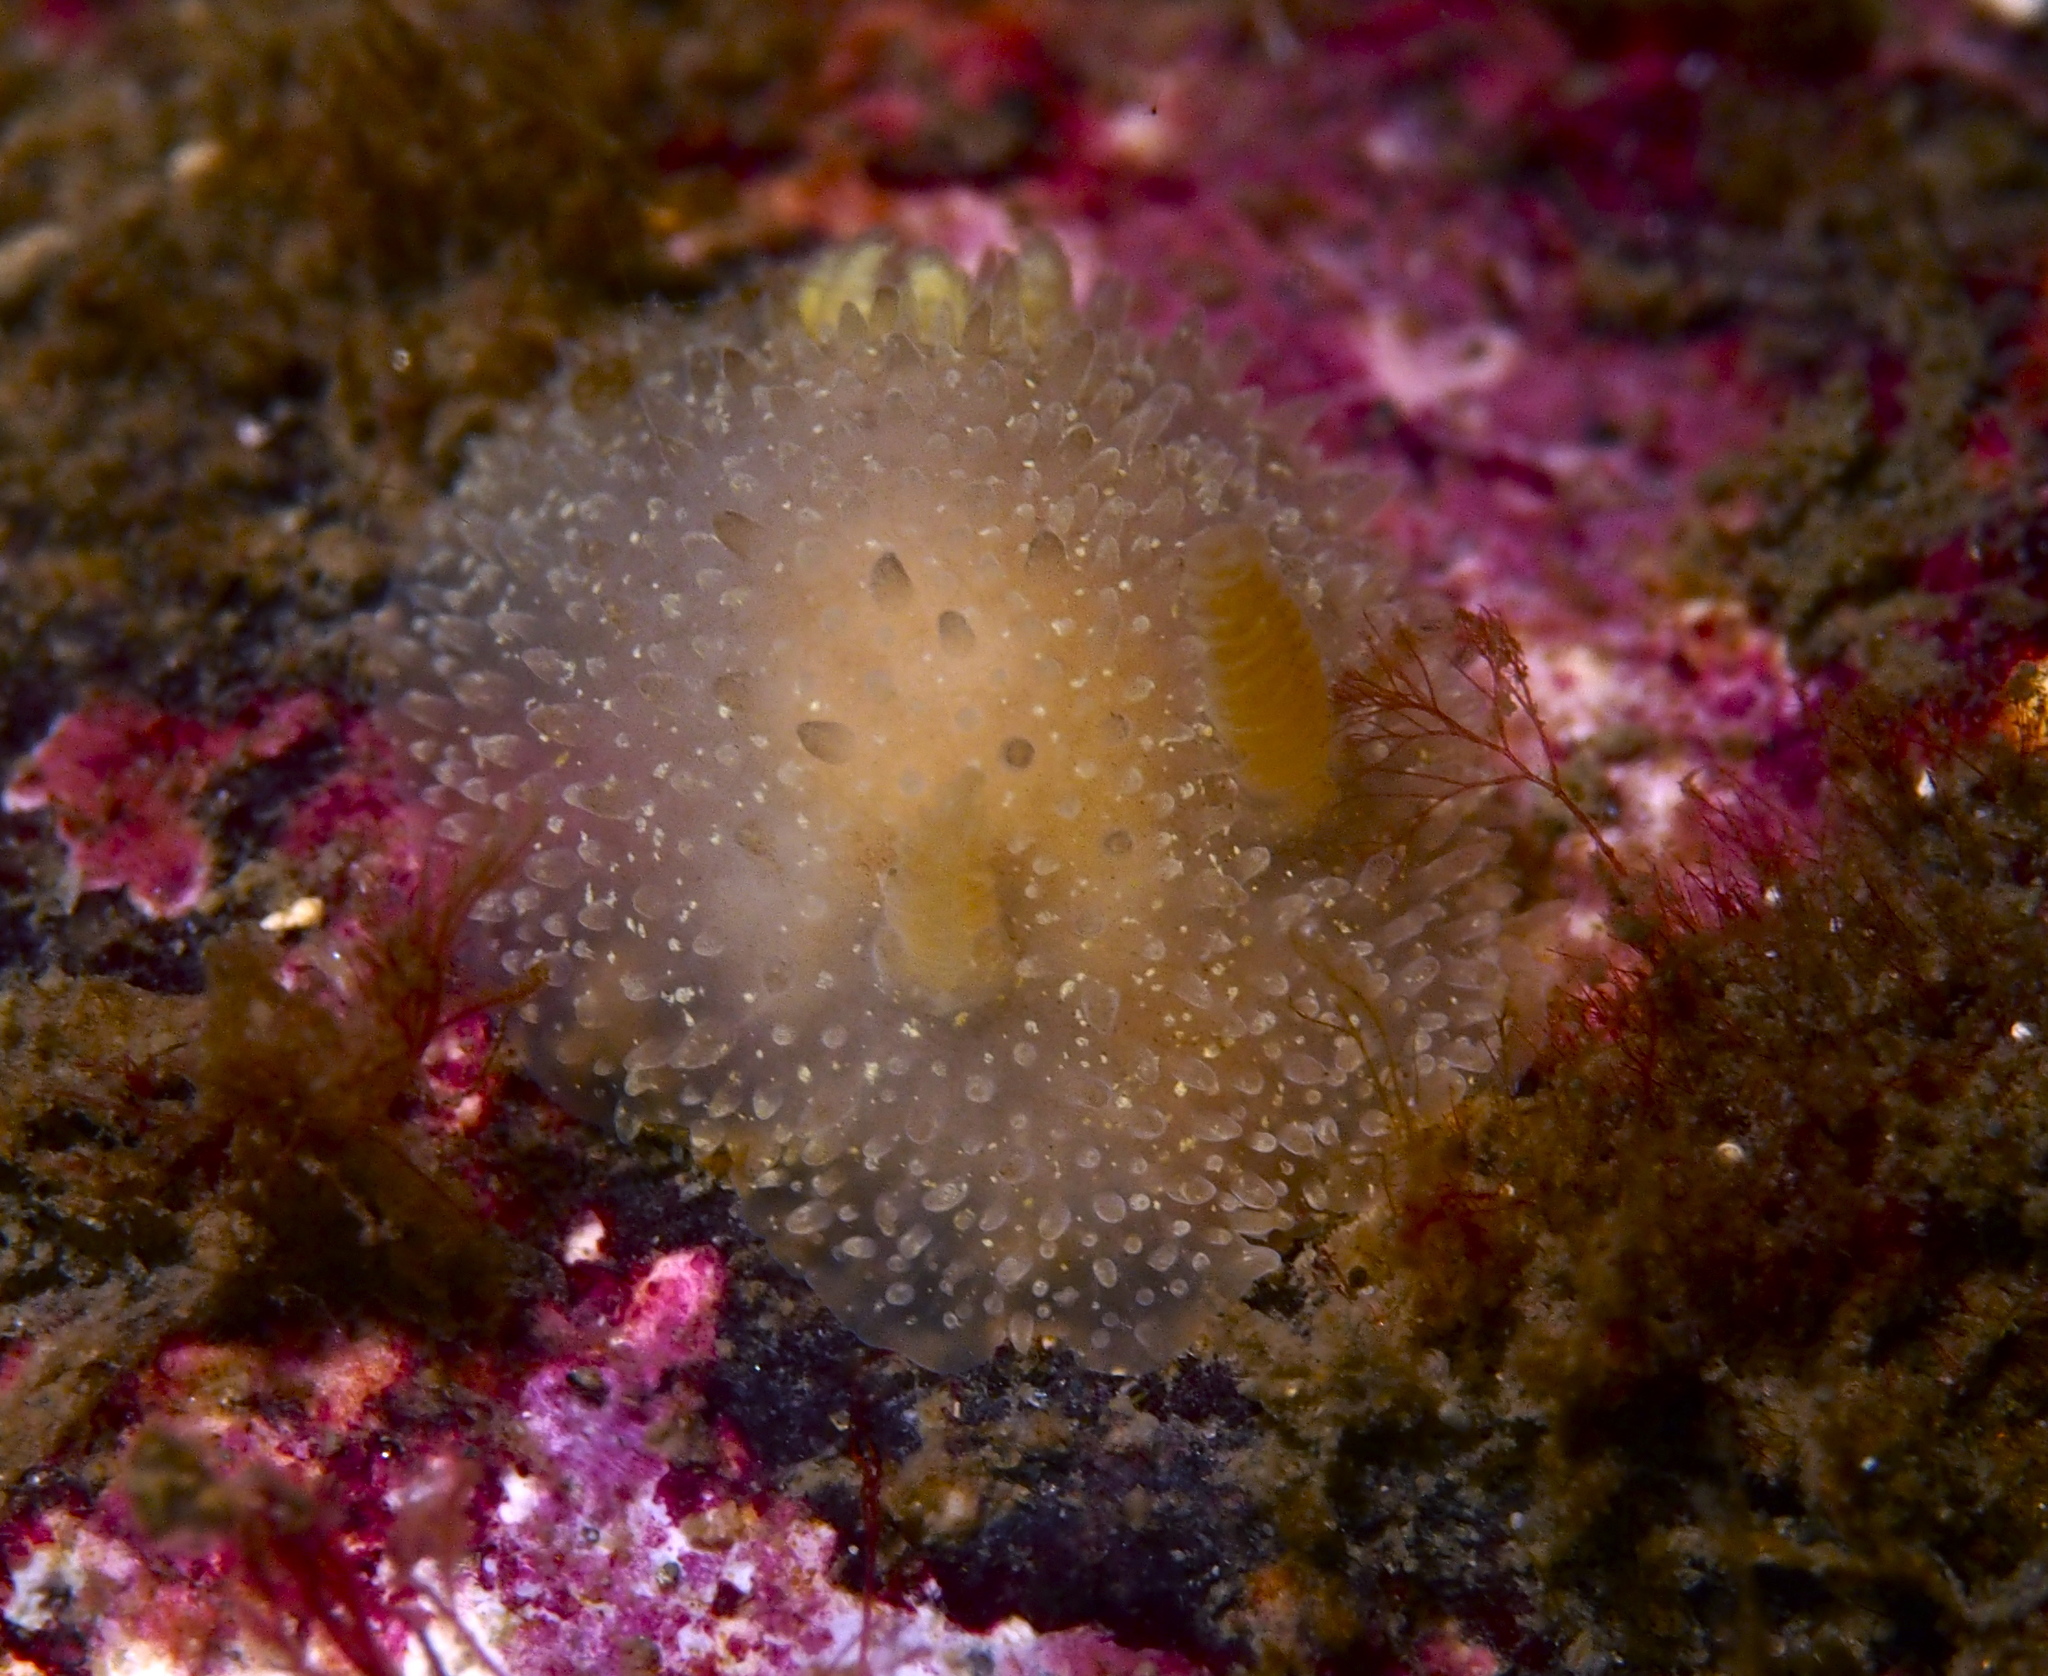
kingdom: Animalia
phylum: Mollusca
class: Gastropoda
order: Nudibranchia
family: Onchidorididae
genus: Acanthodoris
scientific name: Acanthodoris pilosa
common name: Hairy spiny doris
